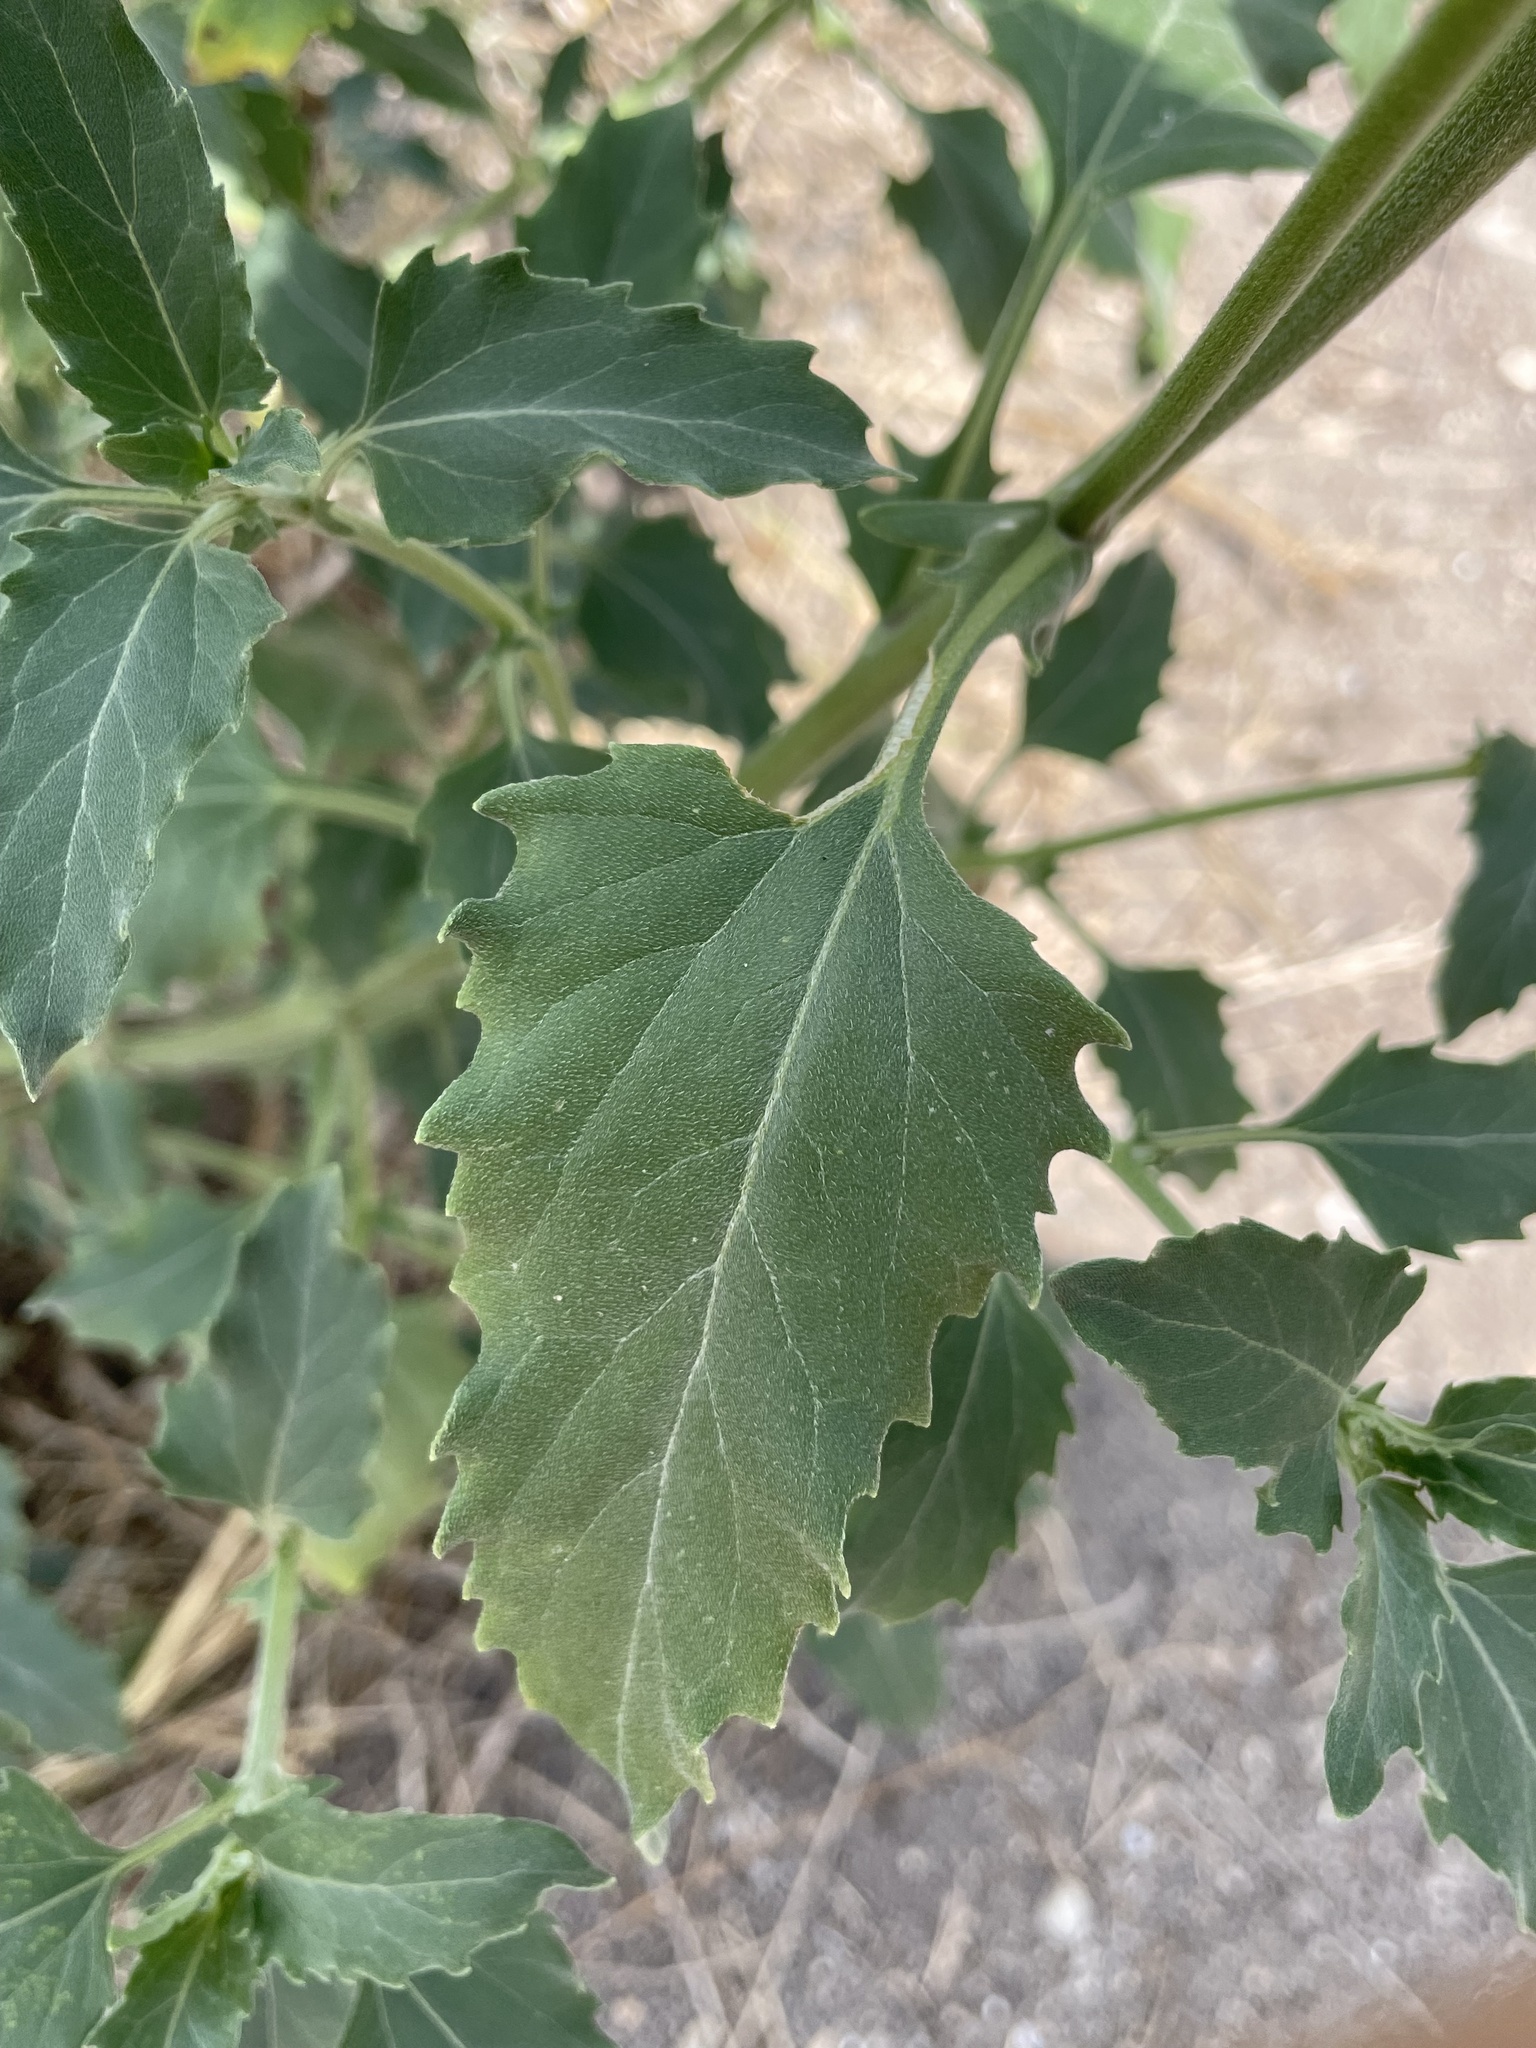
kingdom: Plantae
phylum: Tracheophyta
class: Magnoliopsida
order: Asterales
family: Asteraceae
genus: Verbesina
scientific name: Verbesina encelioides
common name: Golden crownbeard
